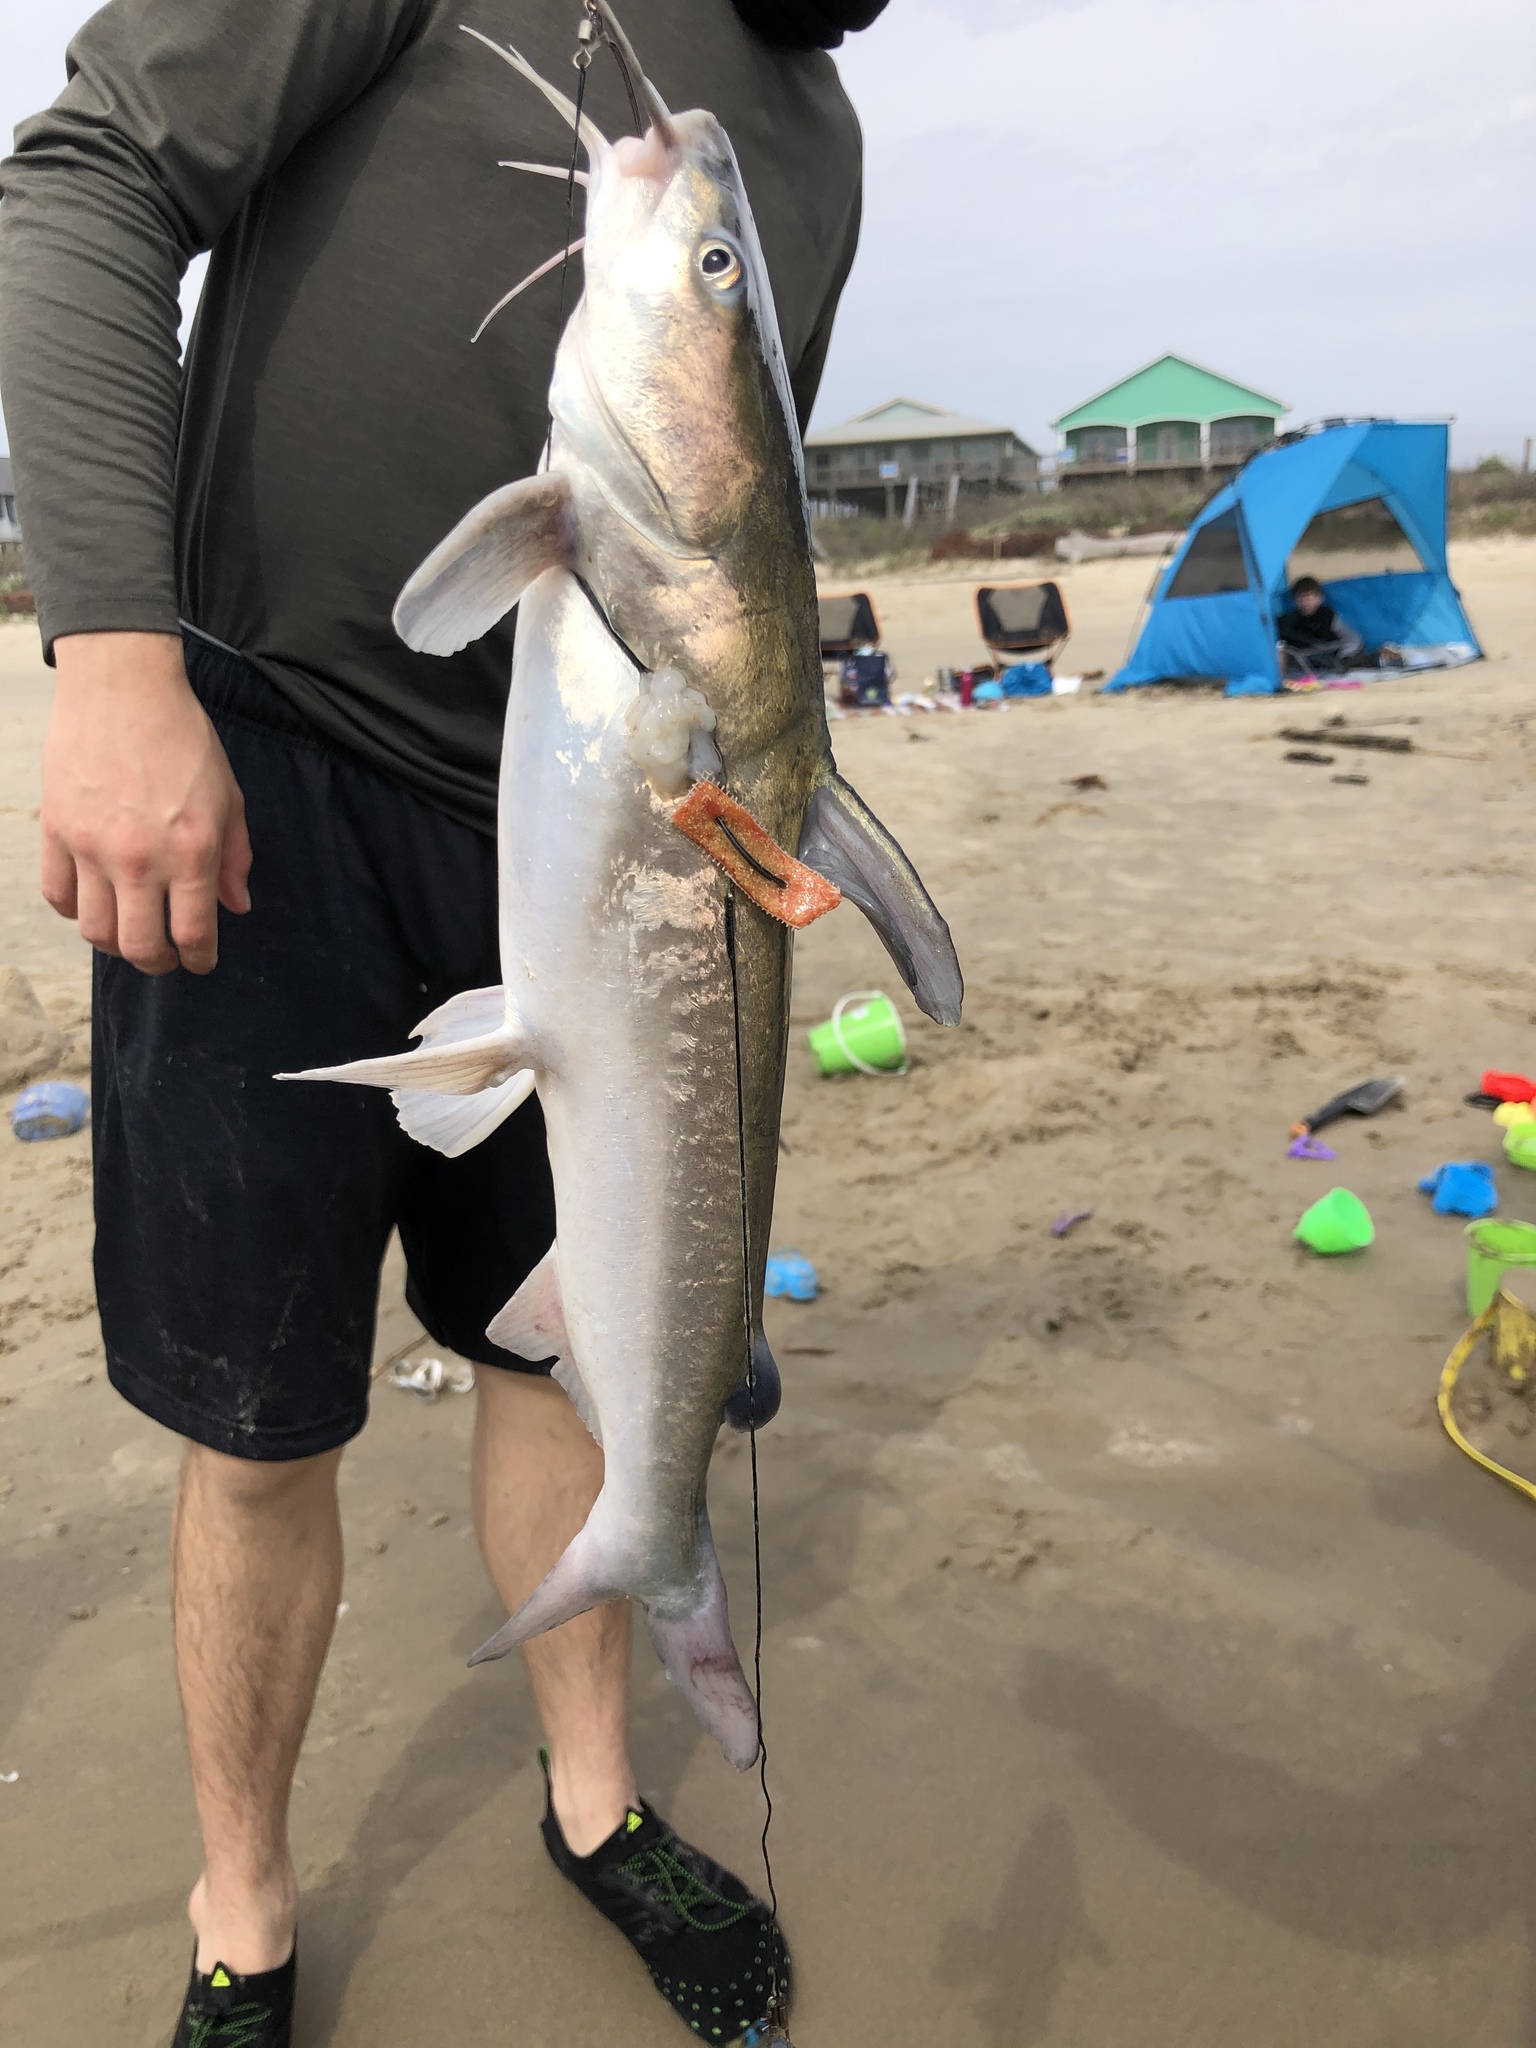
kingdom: Animalia
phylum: Chordata
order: Siluriformes
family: Ariidae
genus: Ariopsis
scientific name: Ariopsis felis
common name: Hardhead catfish
